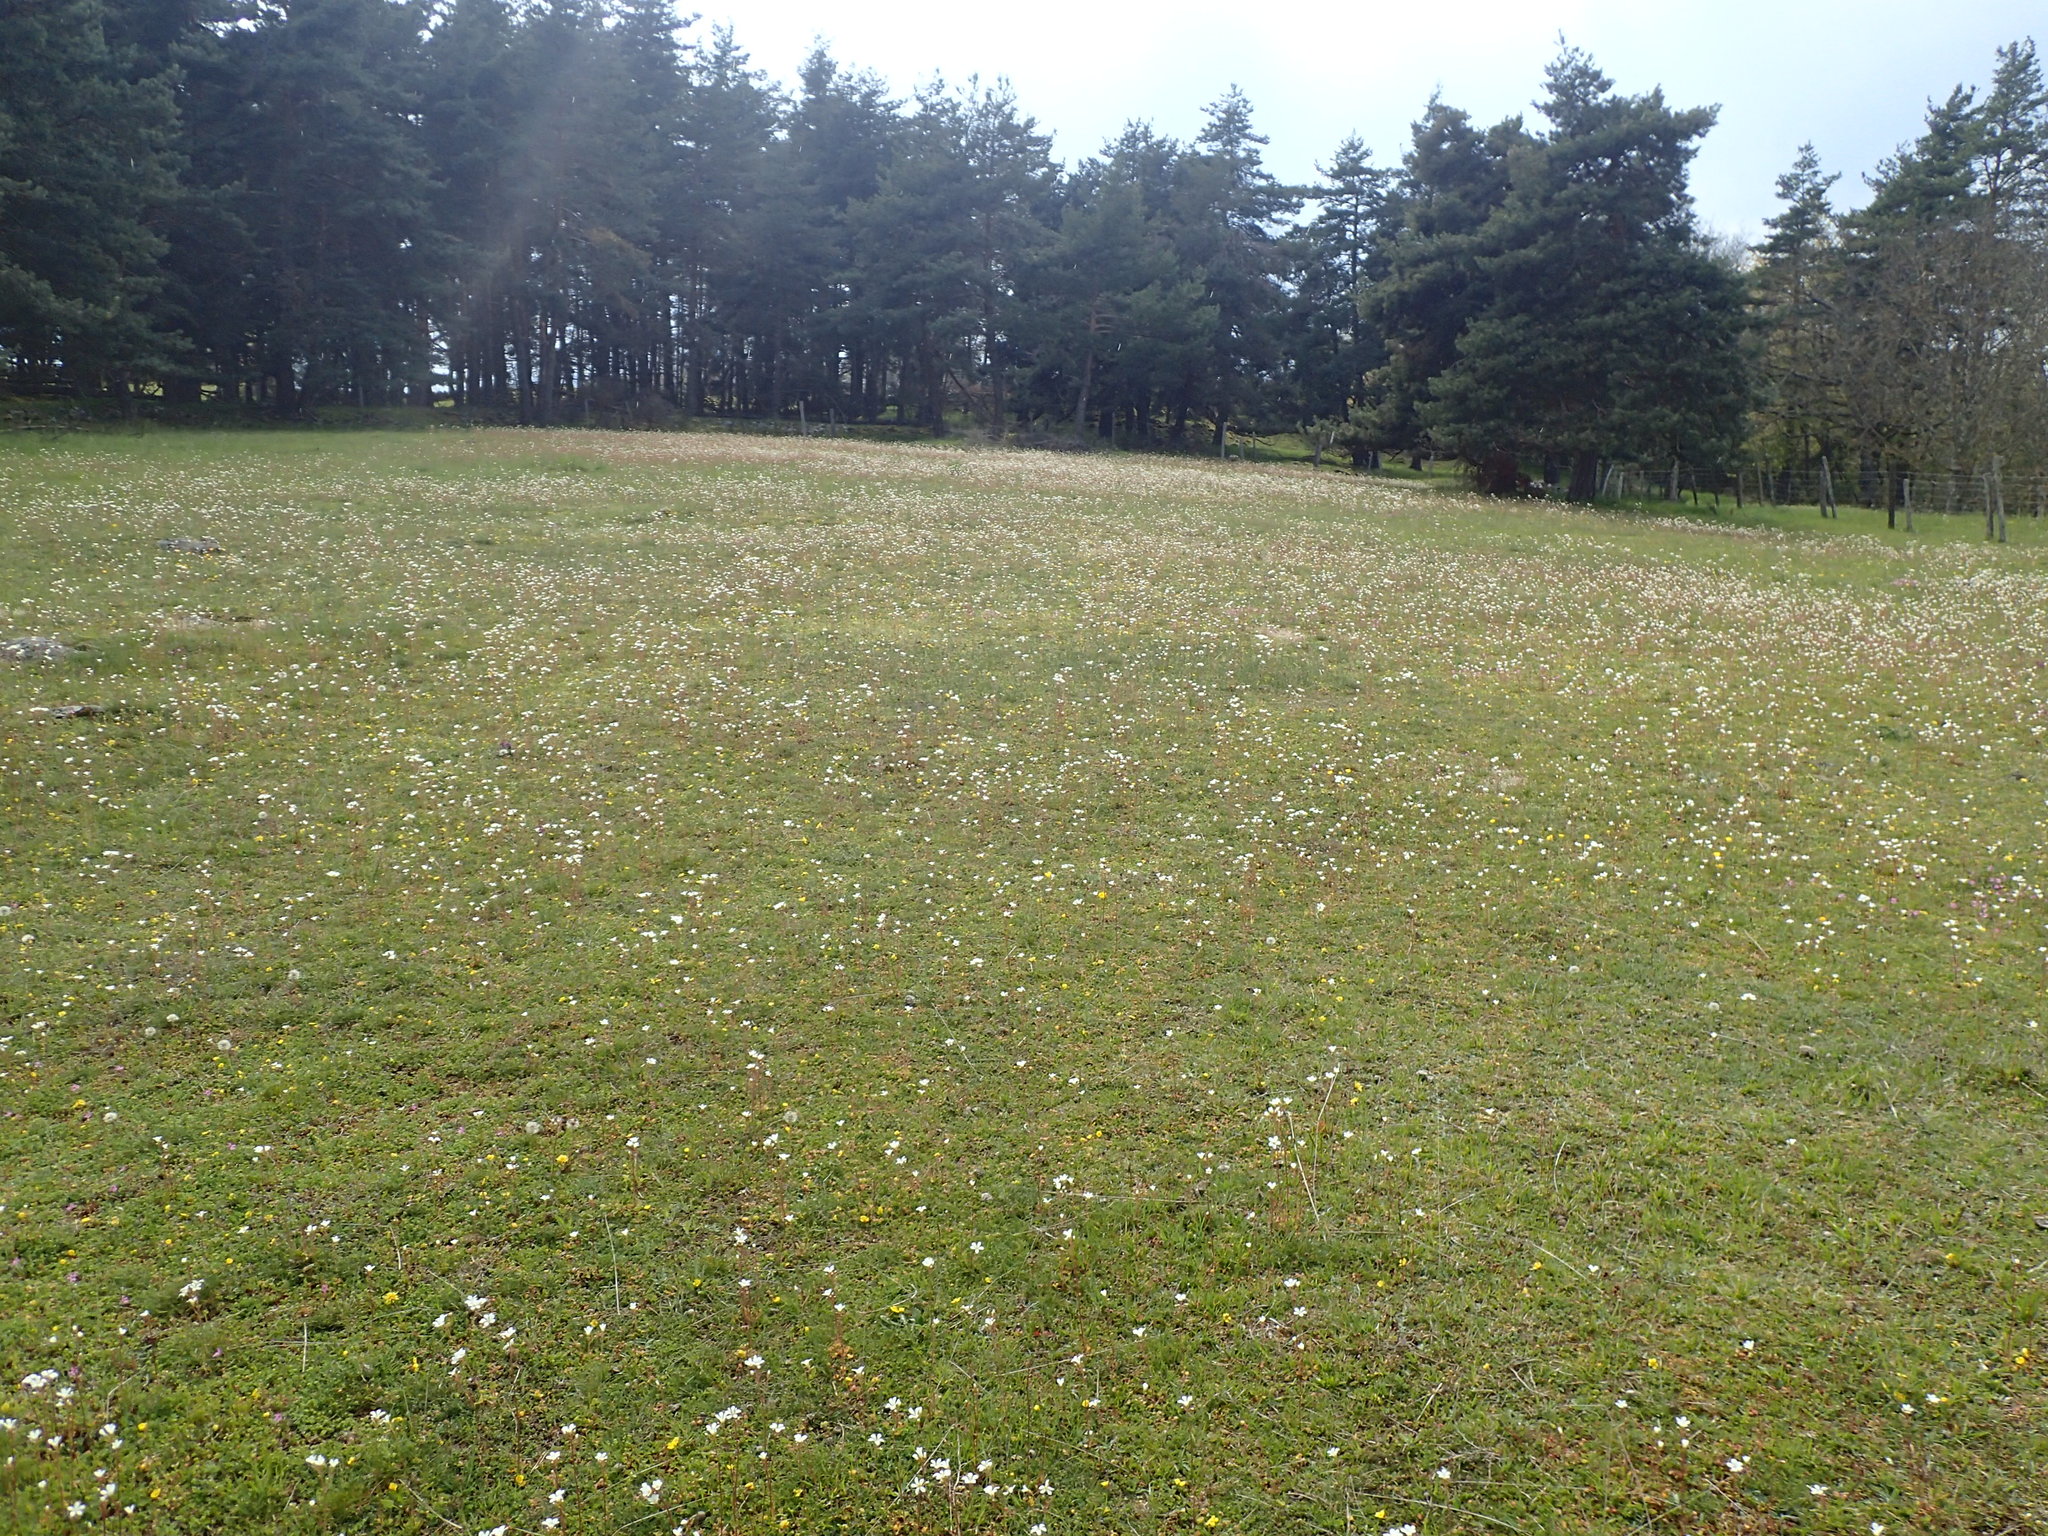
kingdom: Plantae
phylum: Tracheophyta
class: Magnoliopsida
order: Saxifragales
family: Saxifragaceae
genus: Saxifraga
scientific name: Saxifraga granulata
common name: Meadow saxifrage
